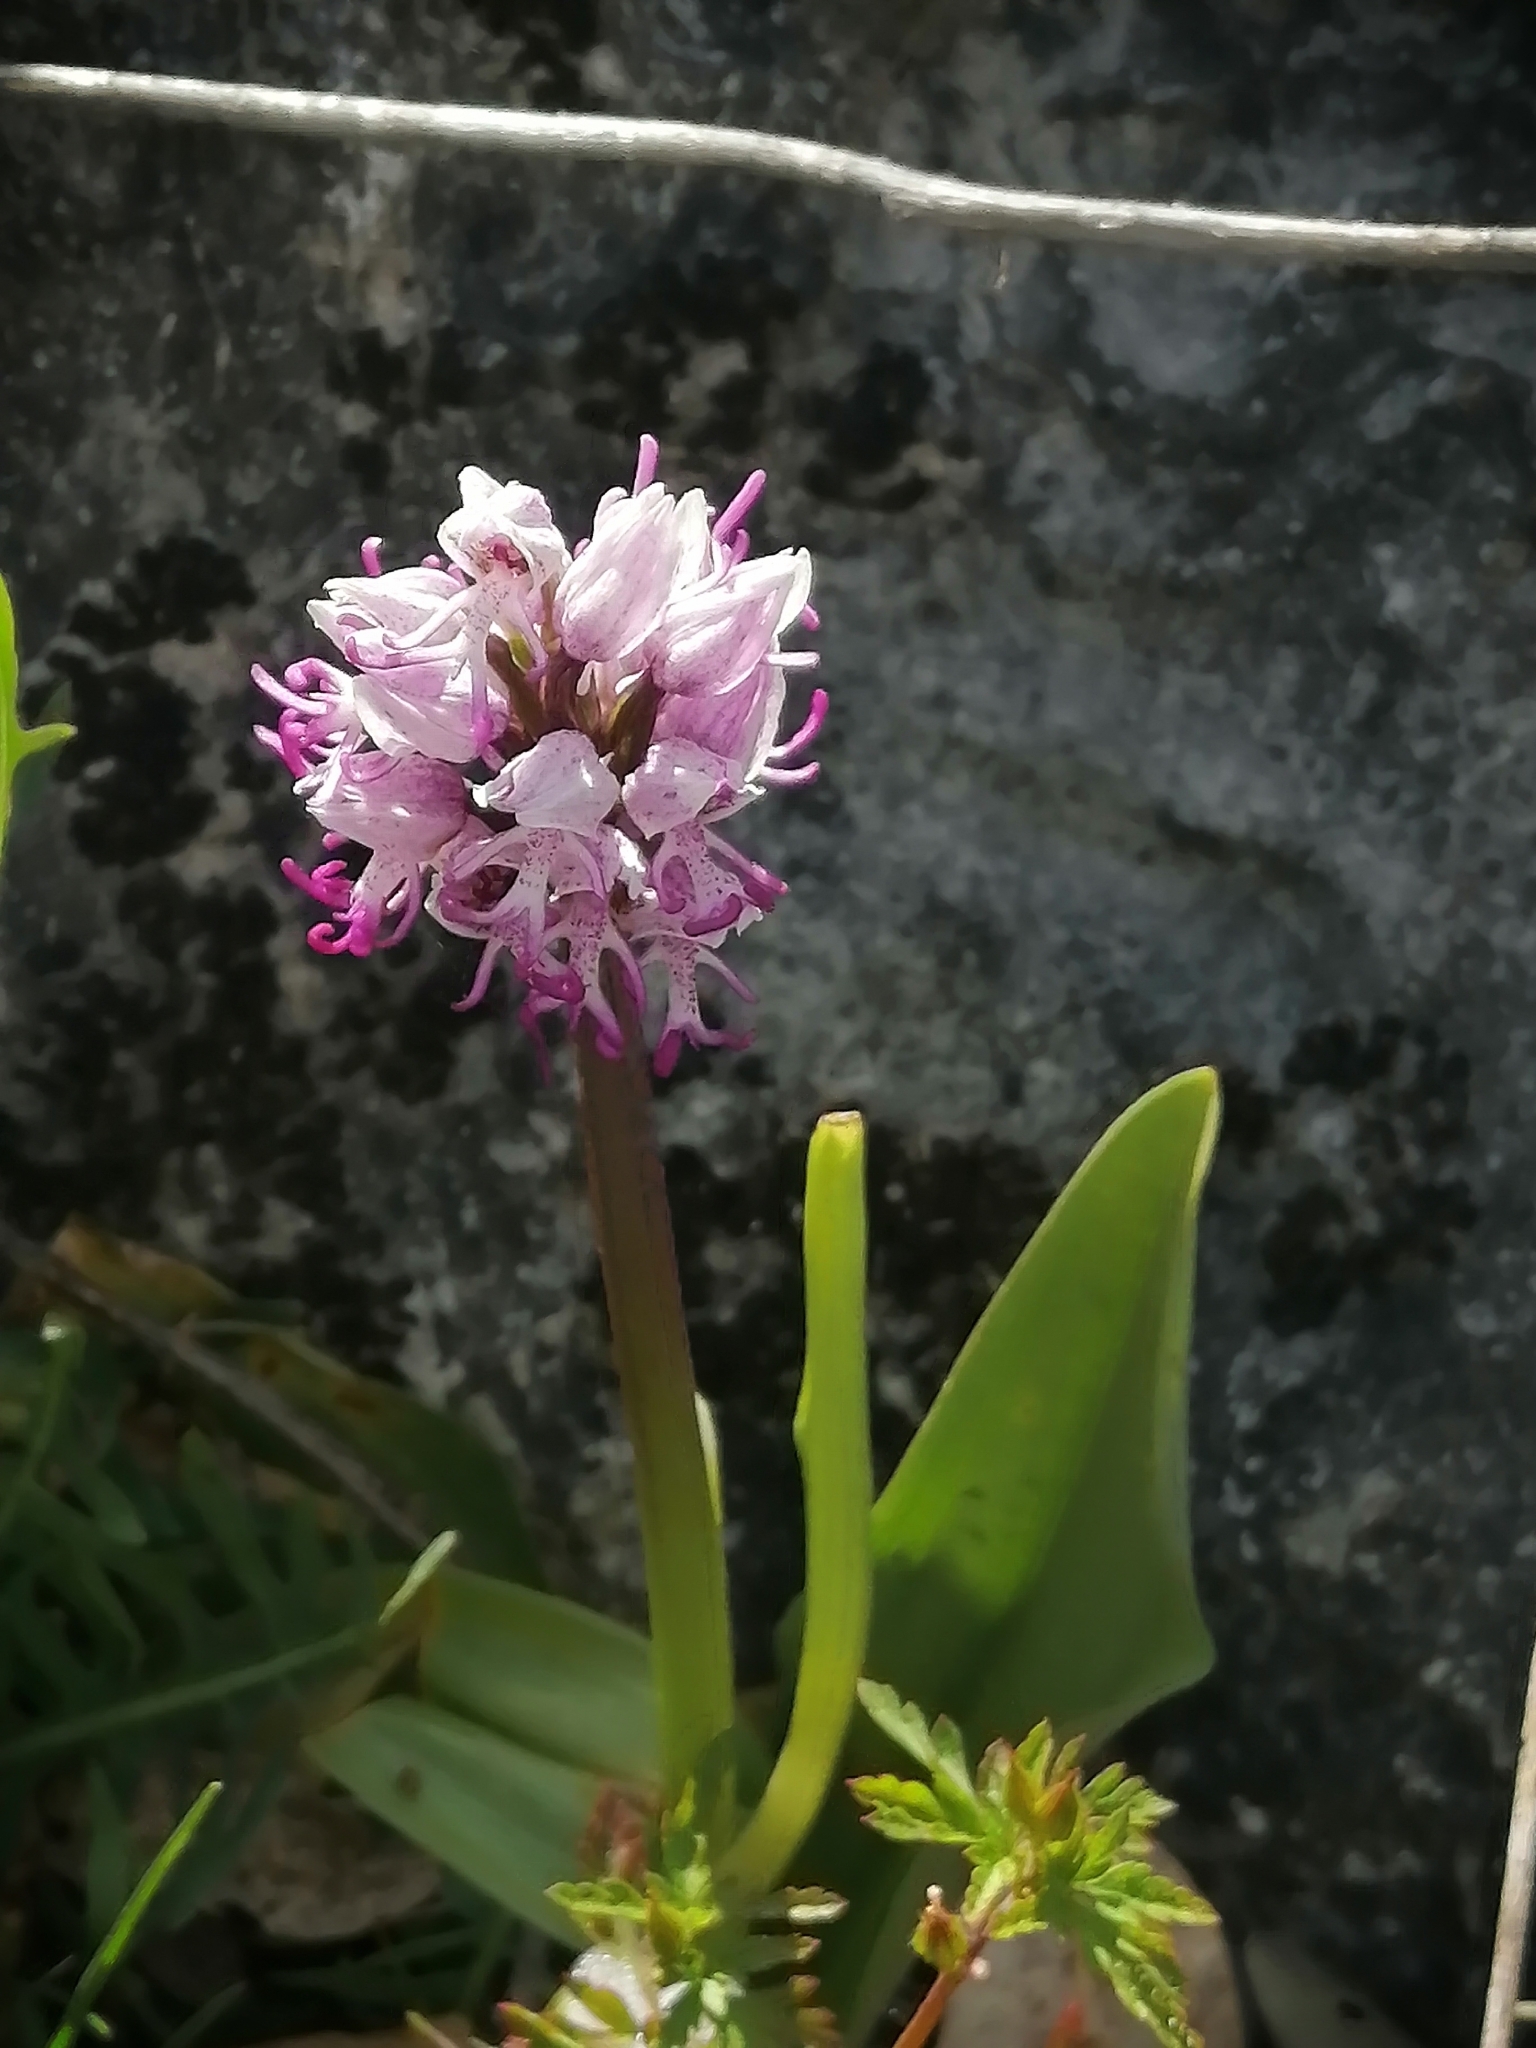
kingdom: Plantae
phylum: Tracheophyta
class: Liliopsida
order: Asparagales
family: Orchidaceae
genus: Orchis
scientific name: Orchis simia
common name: Monkey orchid
